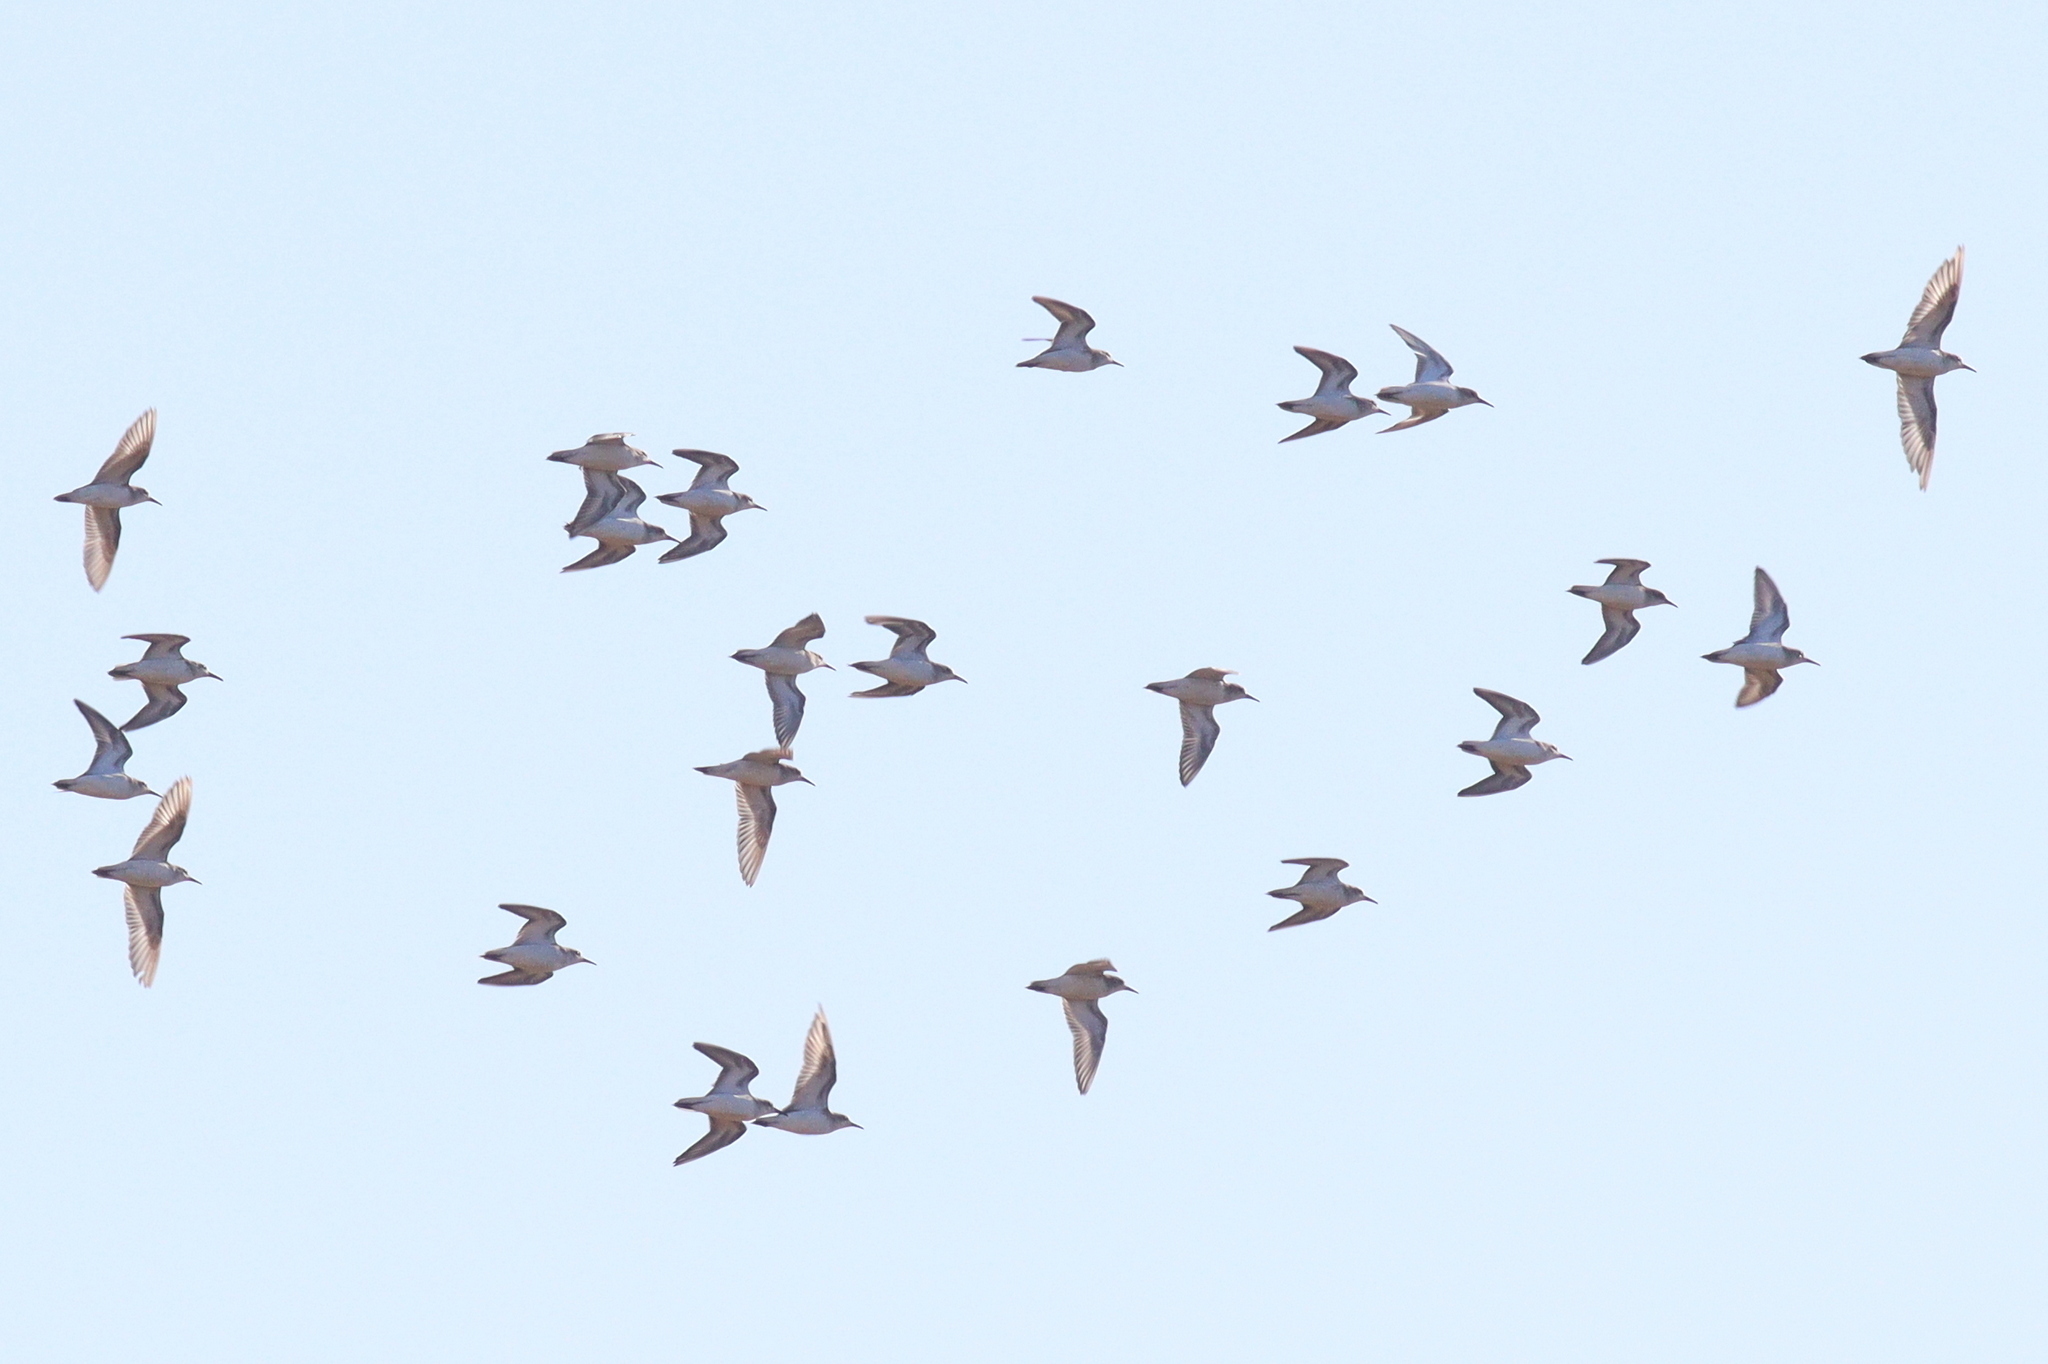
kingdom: Animalia
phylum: Chordata
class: Aves
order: Charadriiformes
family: Scolopacidae
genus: Calidris
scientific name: Calidris minuta
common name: Little stint
